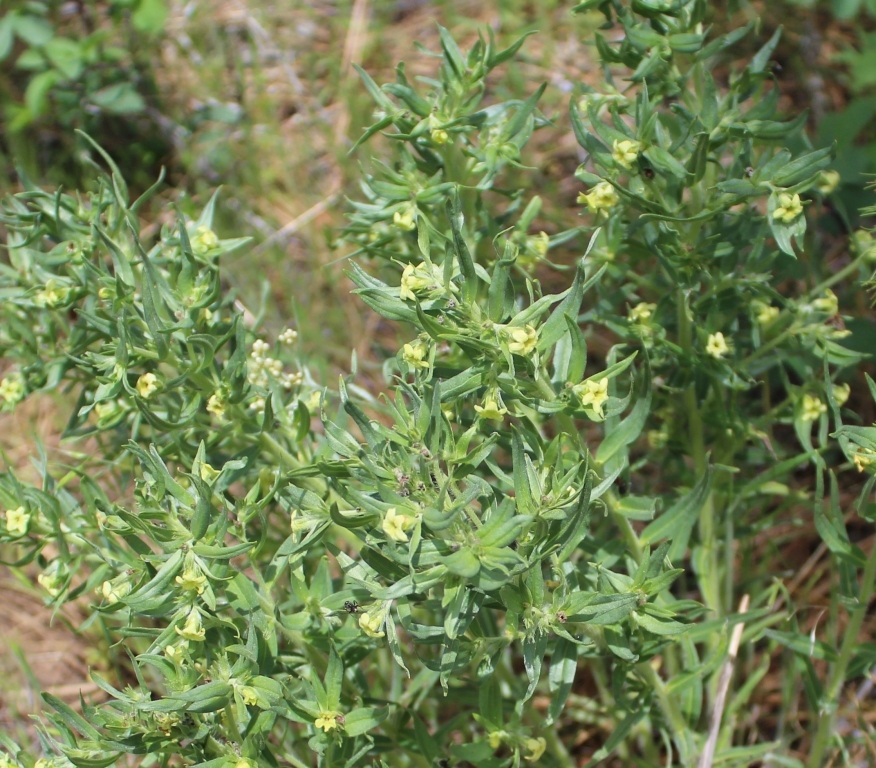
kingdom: Plantae
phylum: Tracheophyta
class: Magnoliopsida
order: Boraginales
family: Boraginaceae
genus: Lithospermum
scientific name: Lithospermum ruderale
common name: Western gromwell
